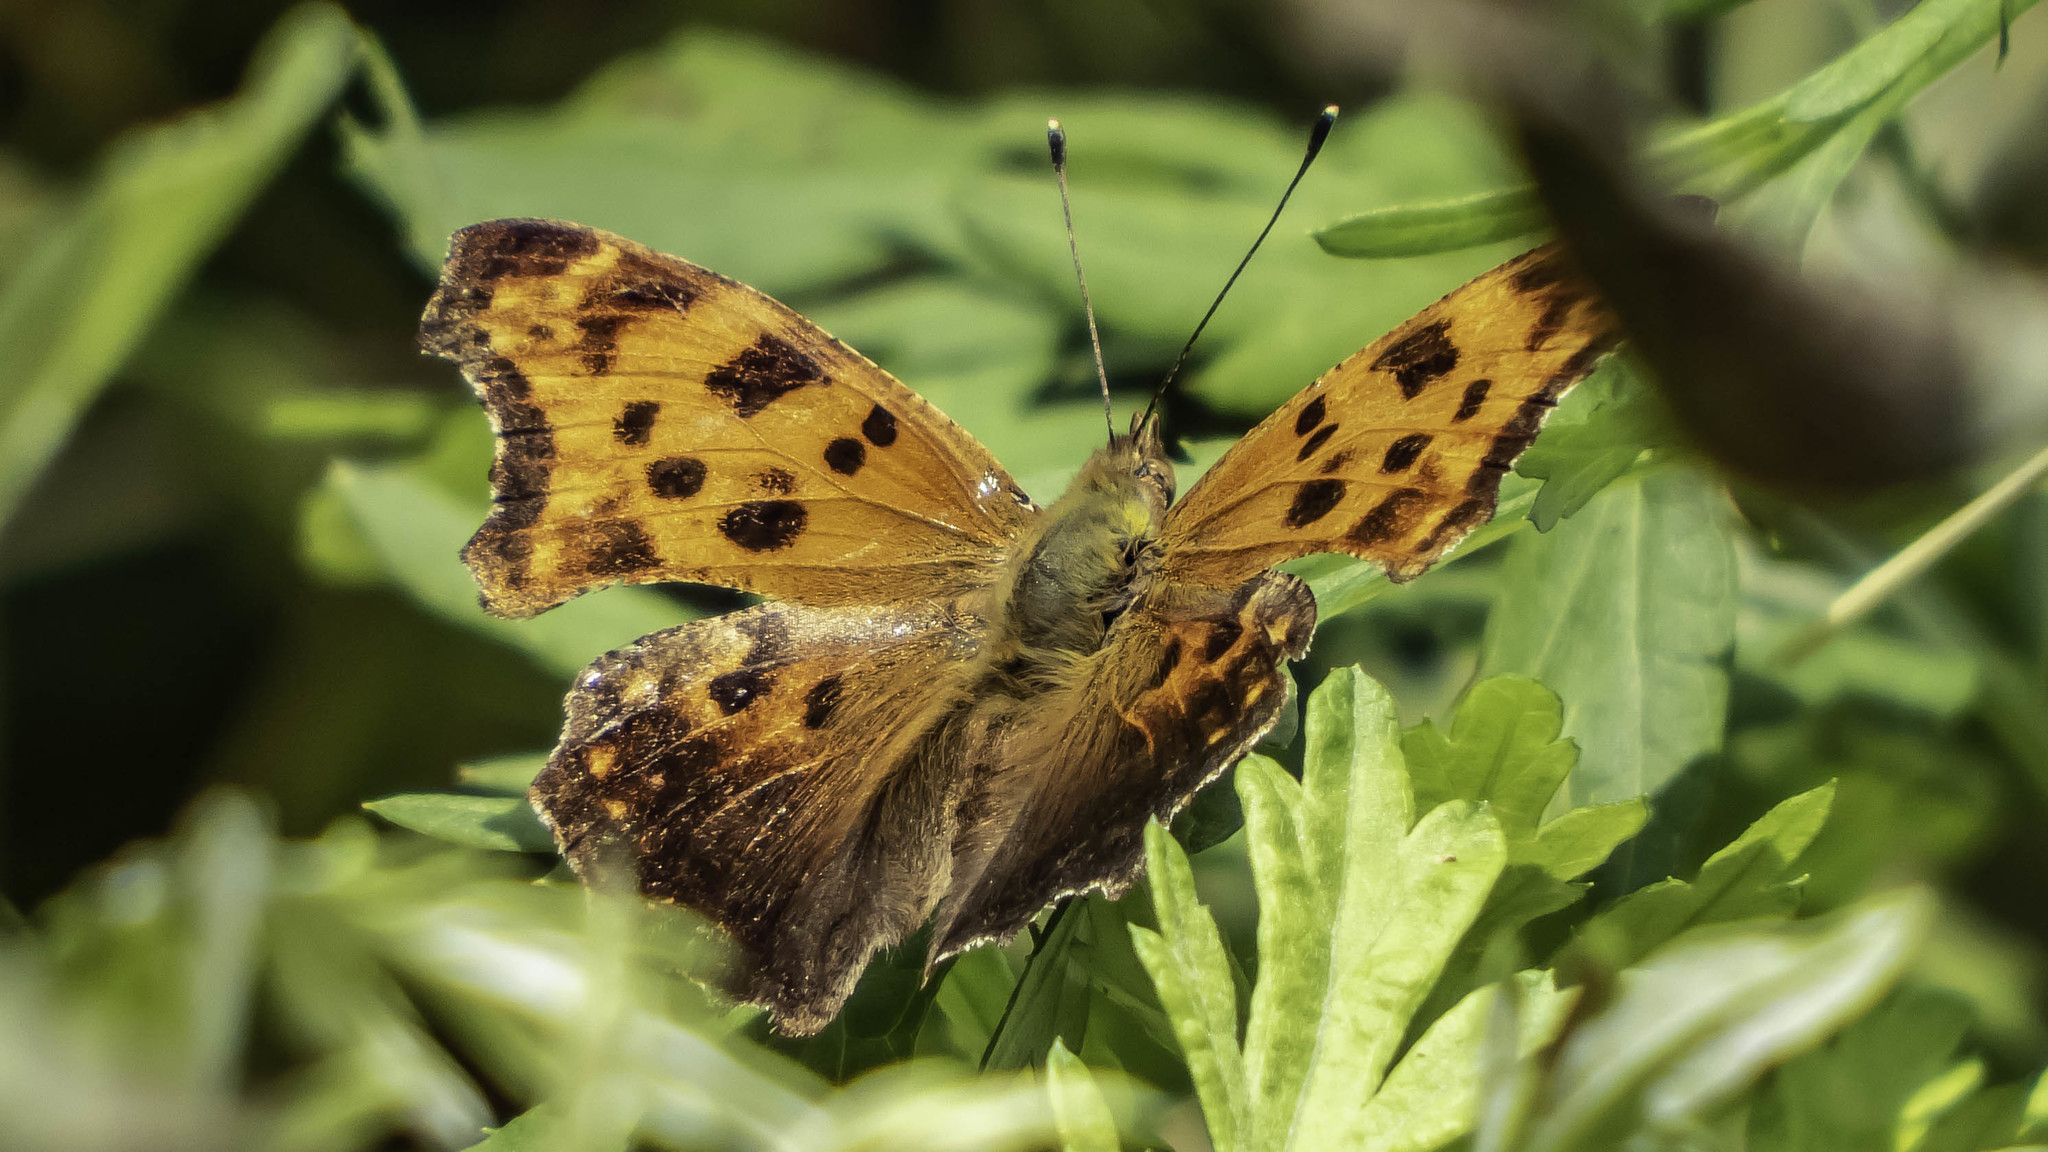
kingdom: Animalia
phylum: Arthropoda
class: Insecta
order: Lepidoptera
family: Nymphalidae
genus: Polygonia
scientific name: Polygonia comma
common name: Eastern comma
